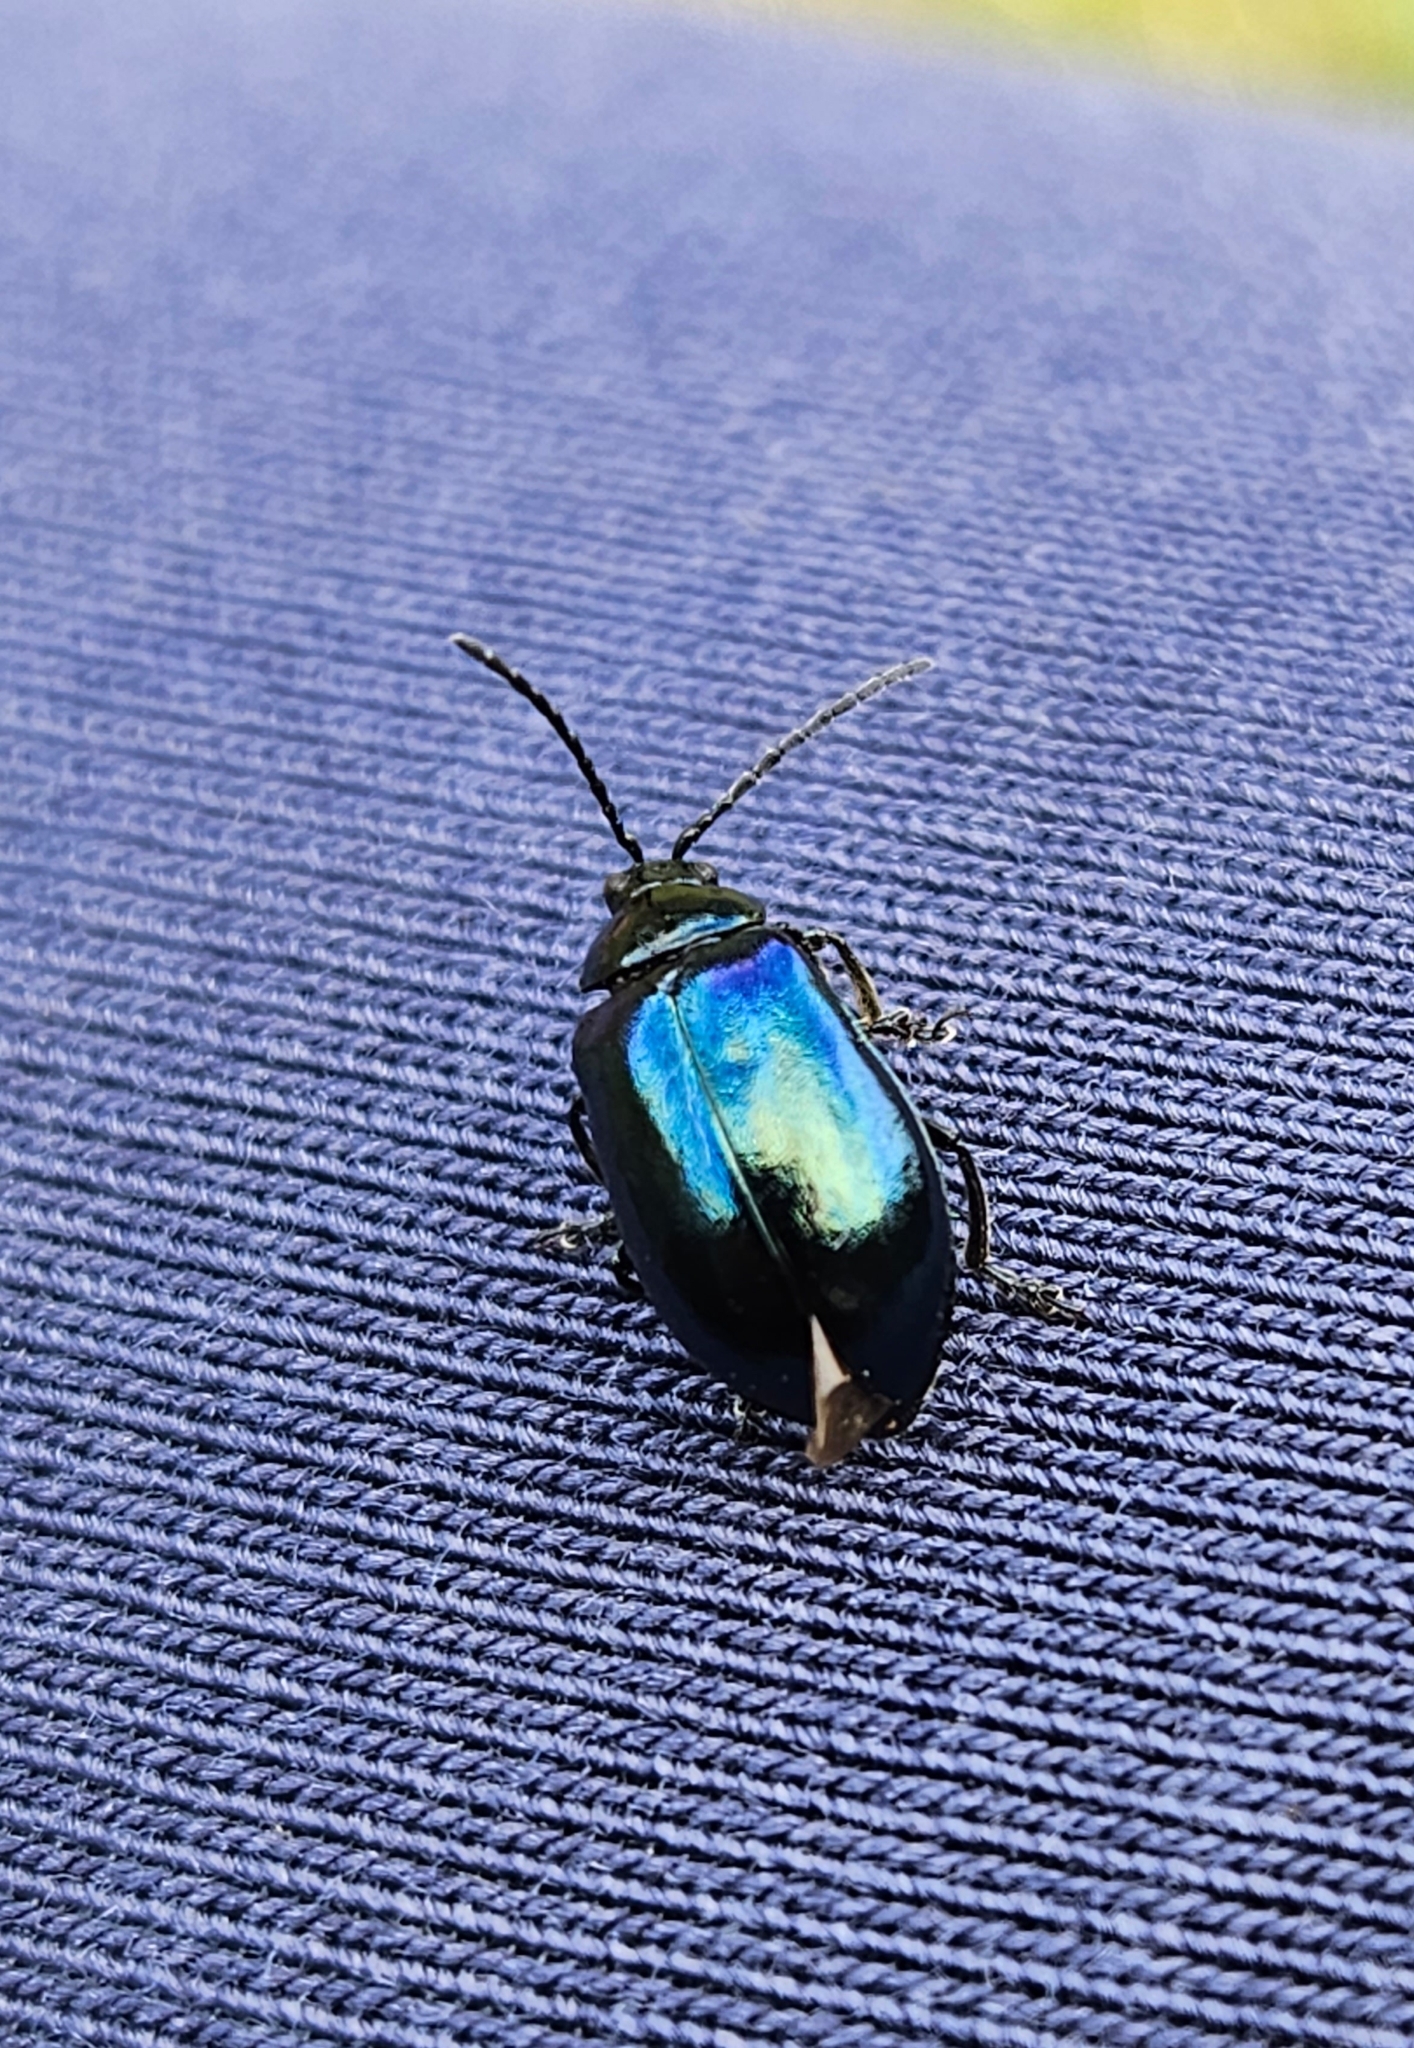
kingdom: Animalia
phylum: Arthropoda
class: Insecta
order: Coleoptera
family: Chrysomelidae
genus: Agelastica
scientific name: Agelastica alni
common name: Alder leaf beetle
